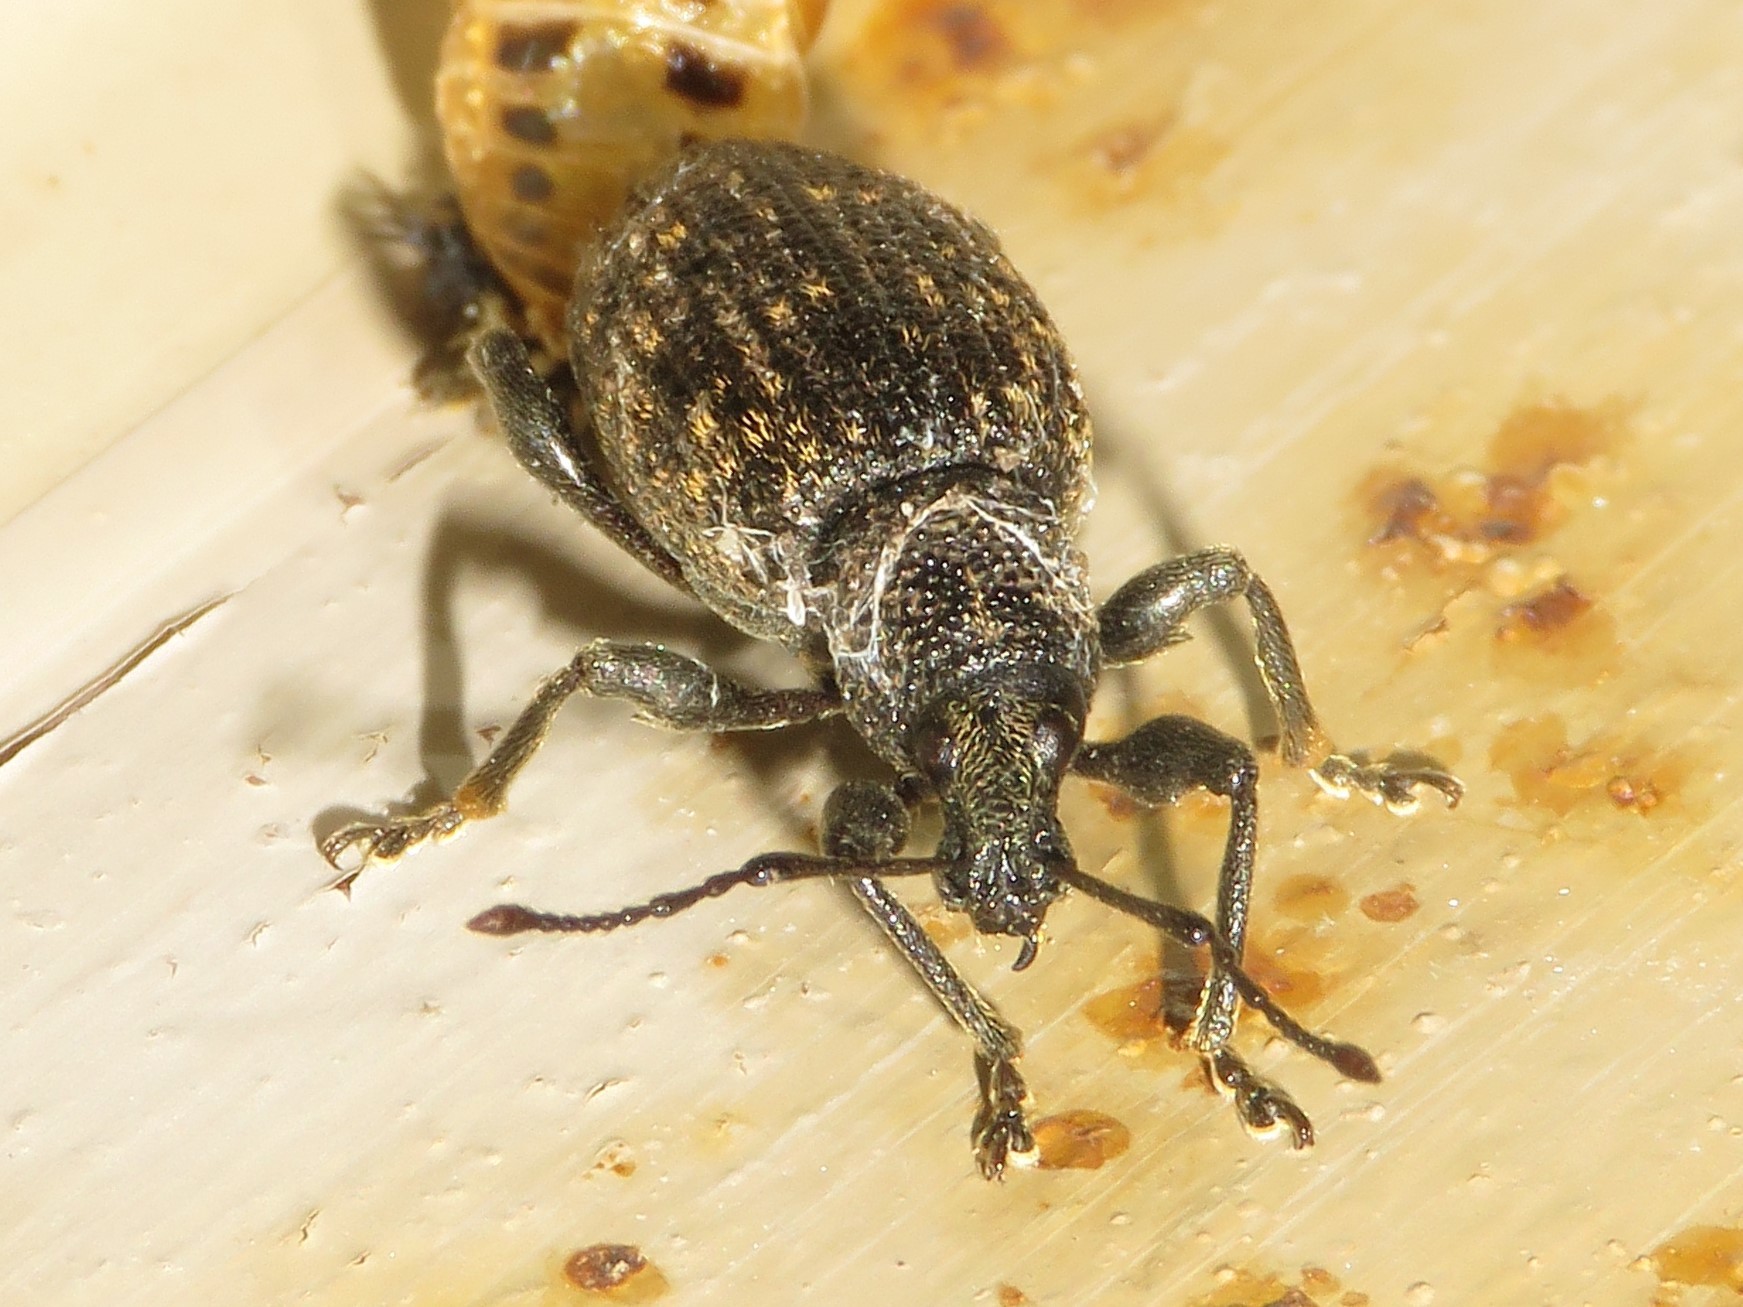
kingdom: Animalia
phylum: Arthropoda
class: Insecta
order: Coleoptera
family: Curculionidae
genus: Otiorhynchus
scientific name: Otiorhynchus sulcatus
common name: Black vine weevil
